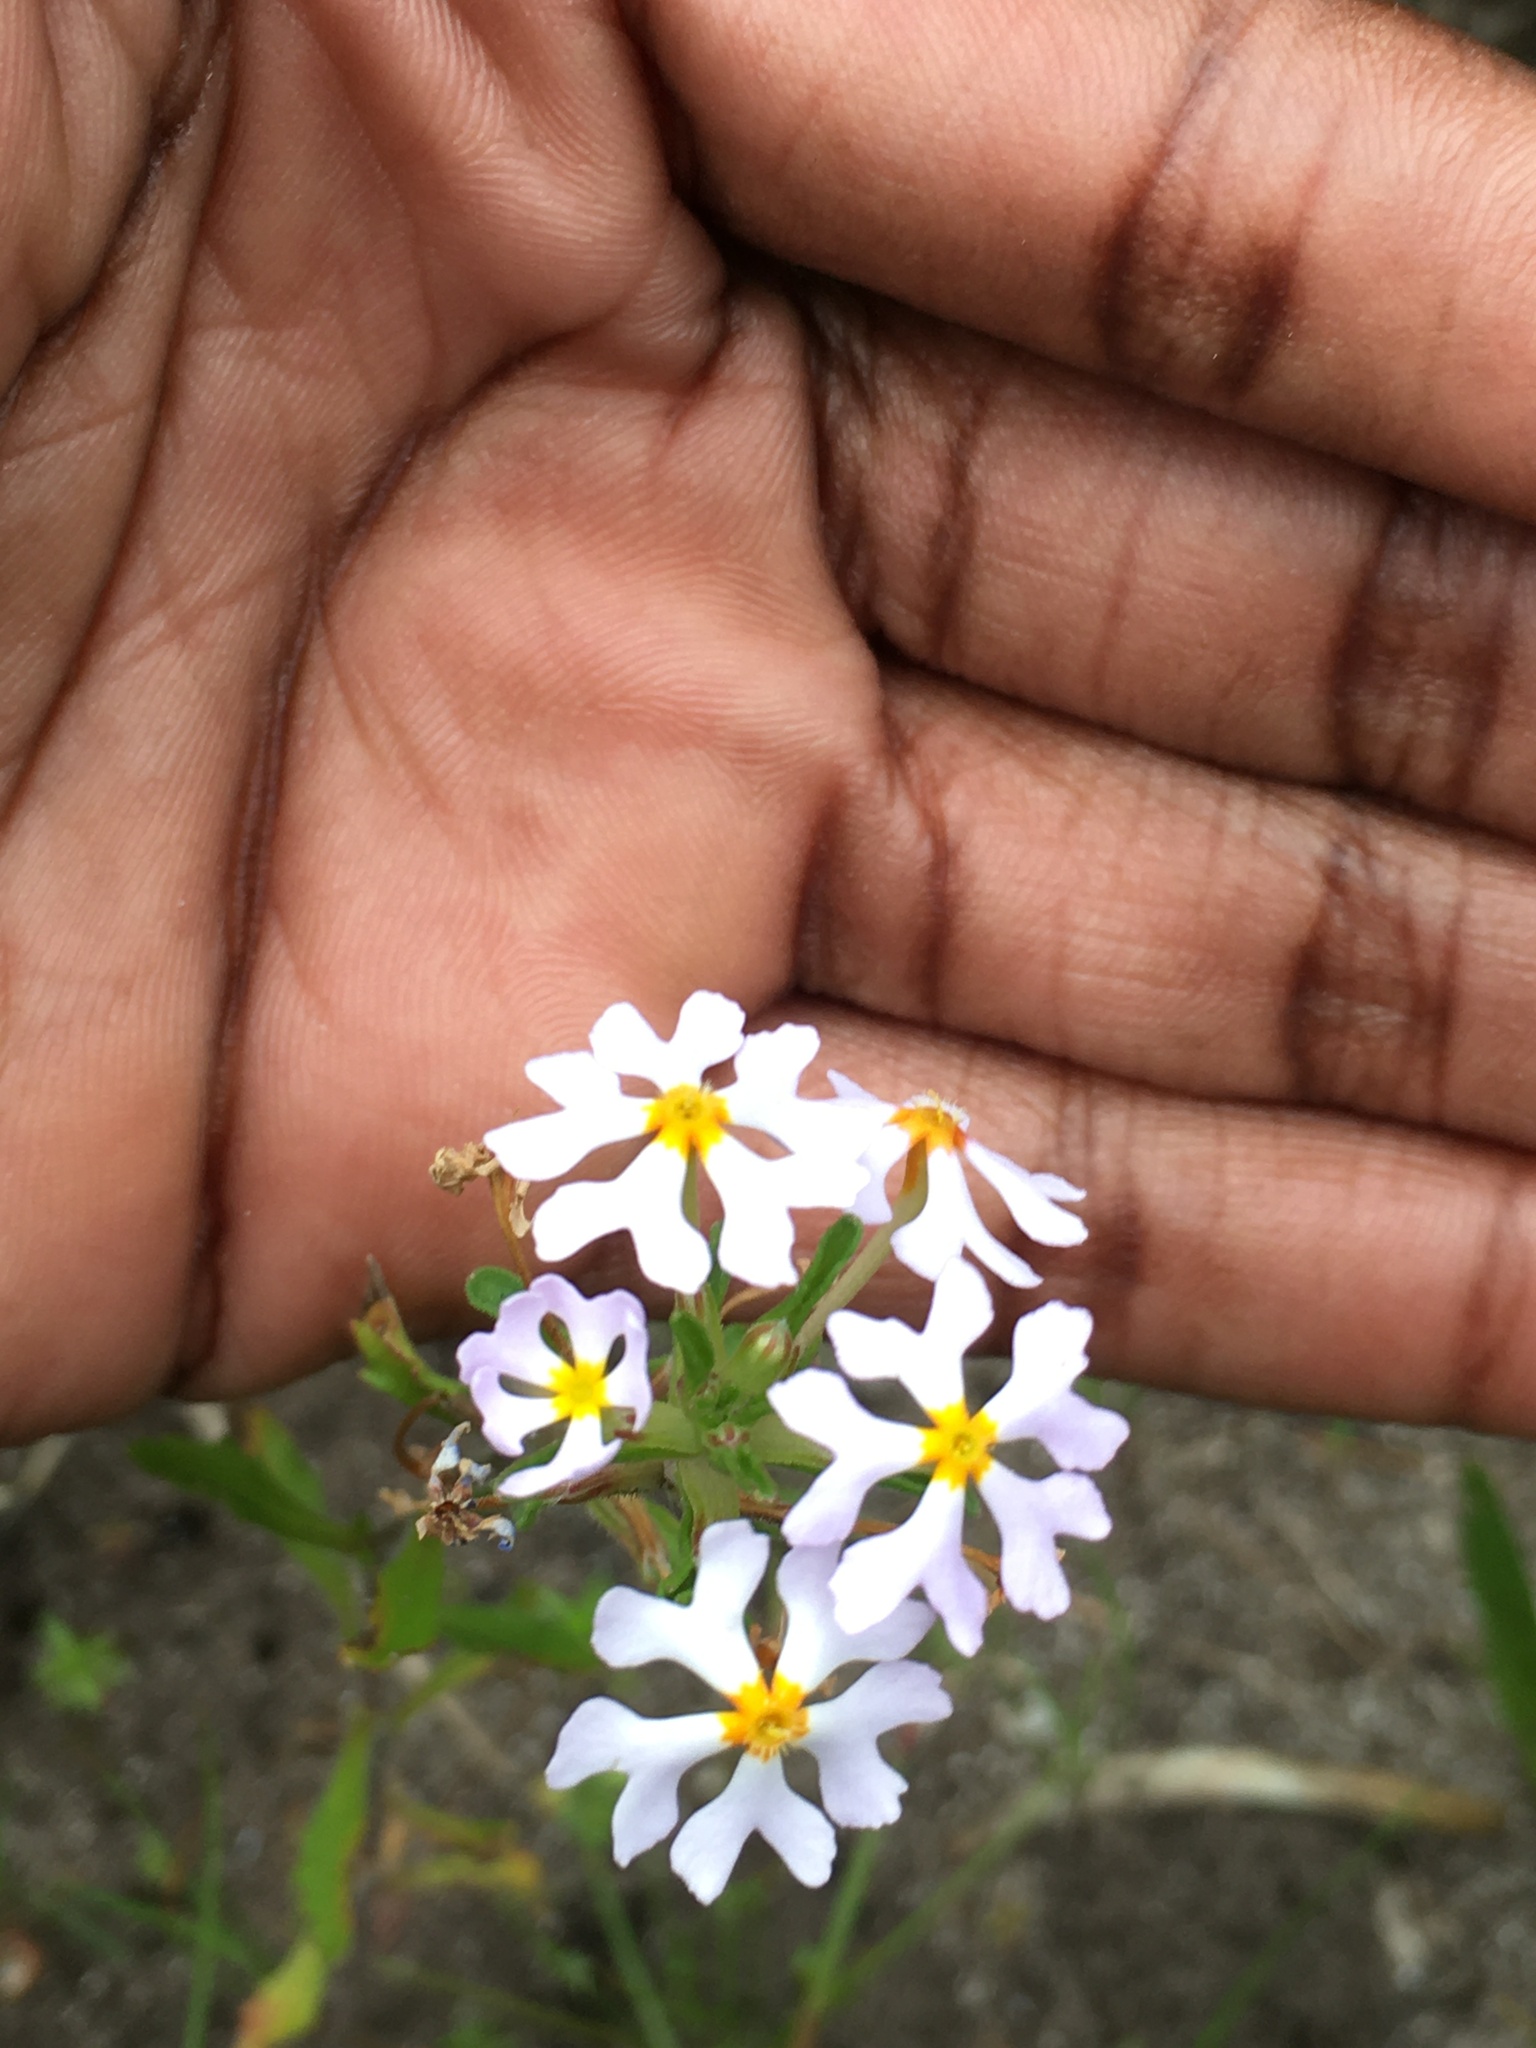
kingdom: Plantae
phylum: Tracheophyta
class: Magnoliopsida
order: Lamiales
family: Scrophulariaceae
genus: Zaluzianskya
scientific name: Zaluzianskya villosa
